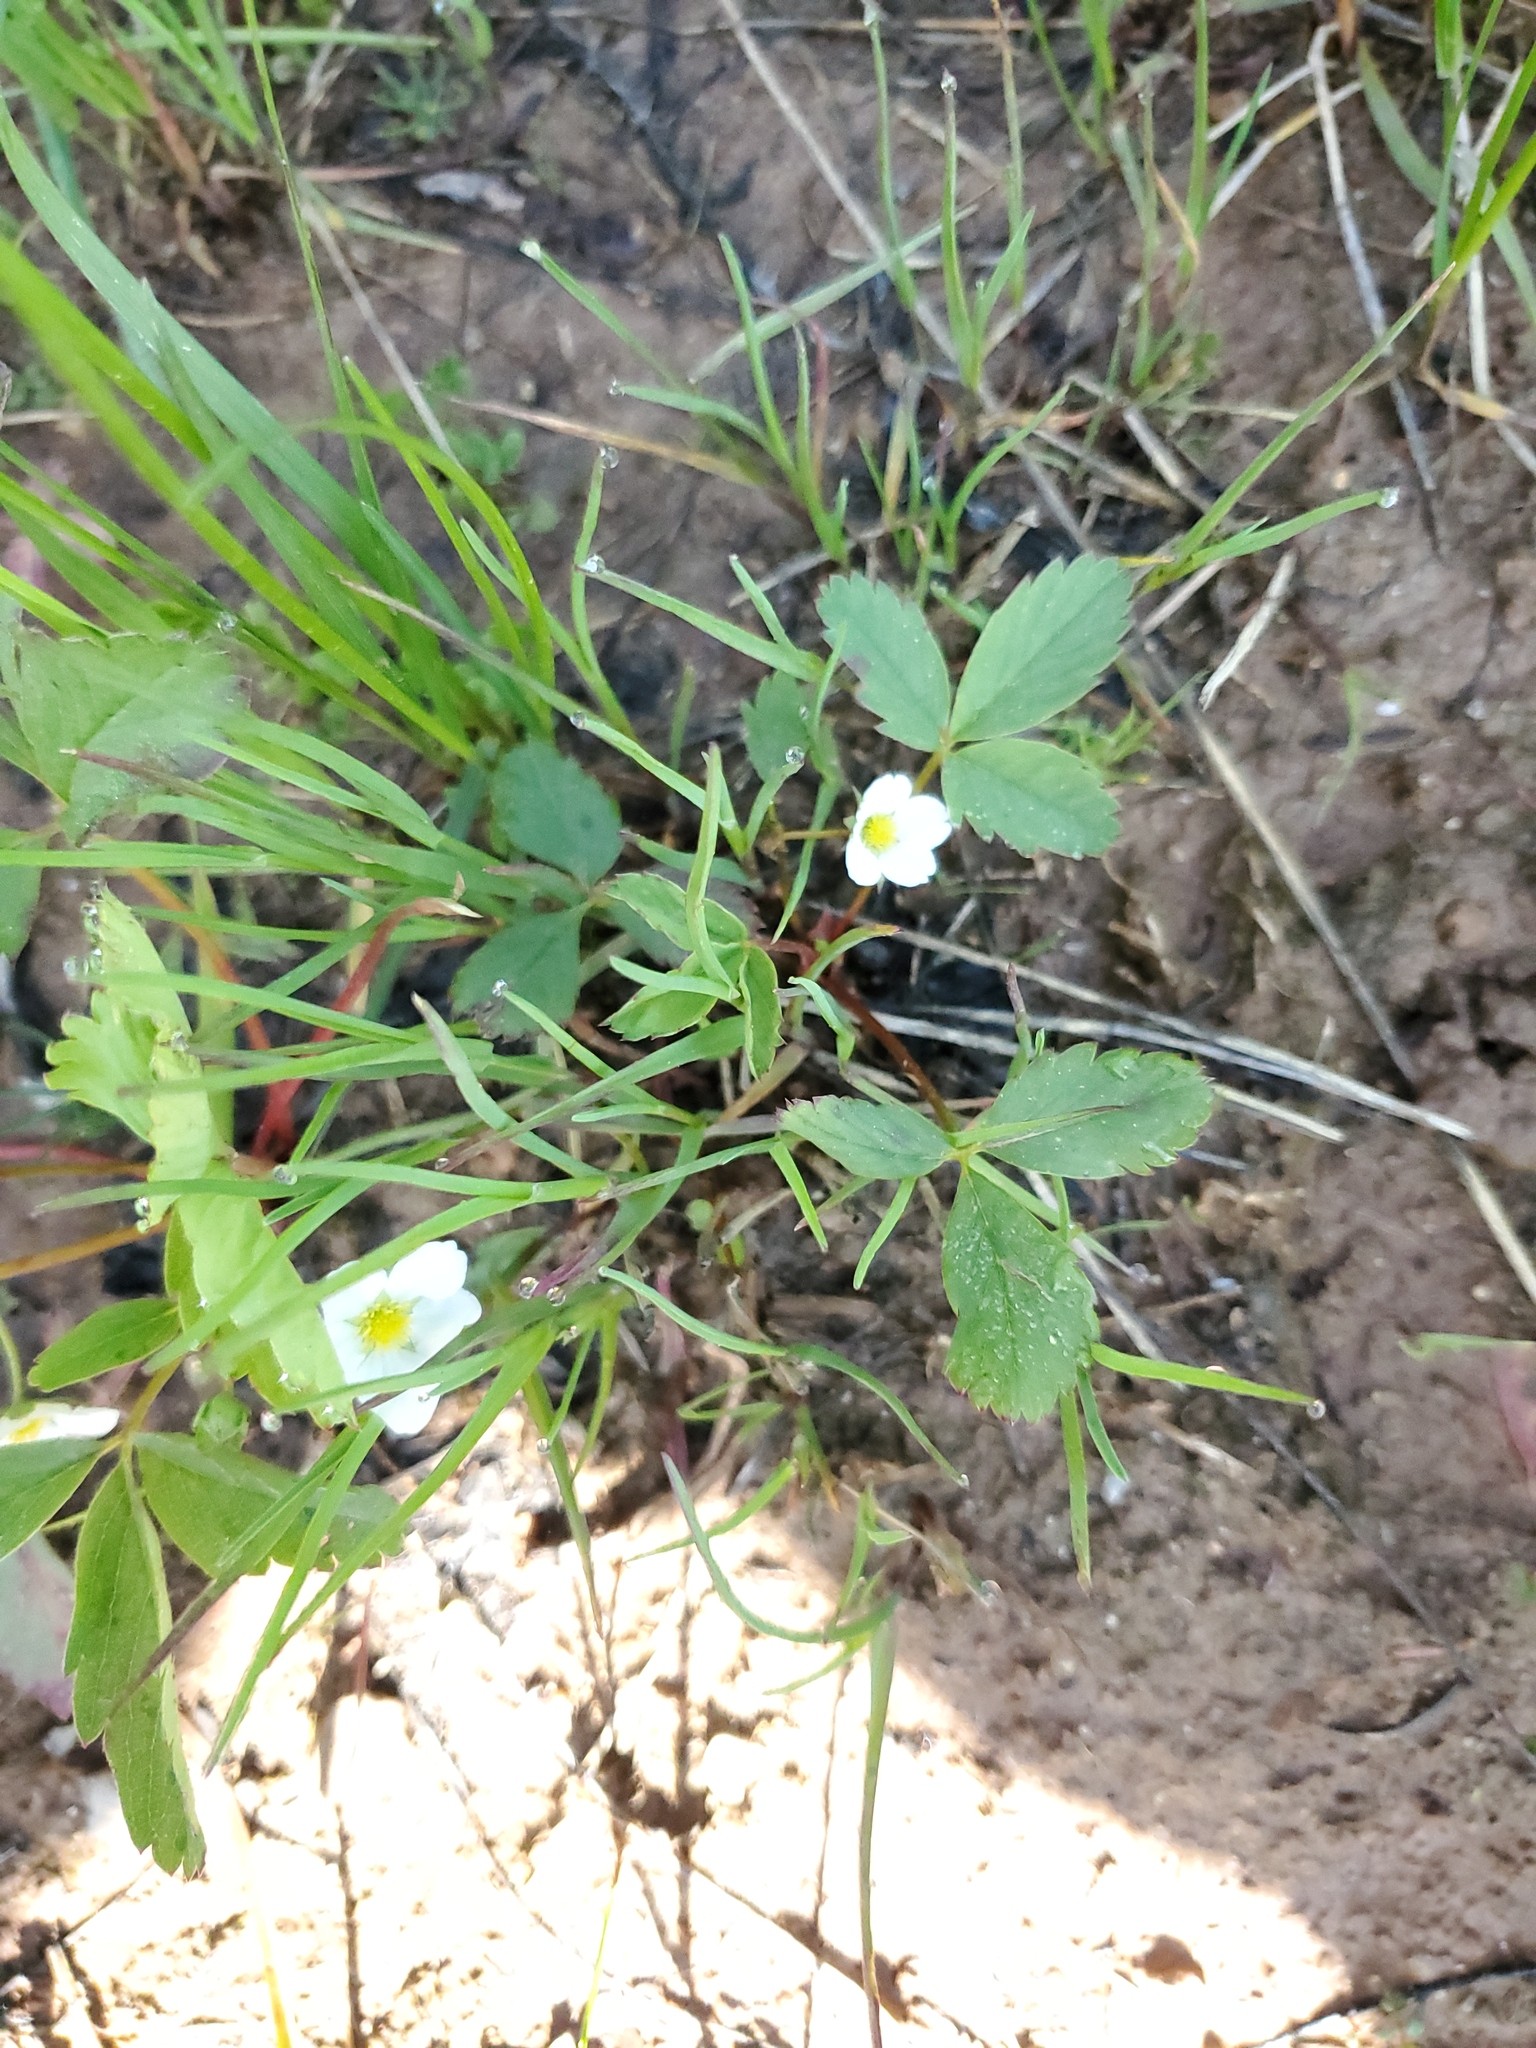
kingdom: Plantae
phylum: Tracheophyta
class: Magnoliopsida
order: Rosales
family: Rosaceae
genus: Fragaria
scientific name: Fragaria virginiana
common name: Thickleaved wild strawberry
